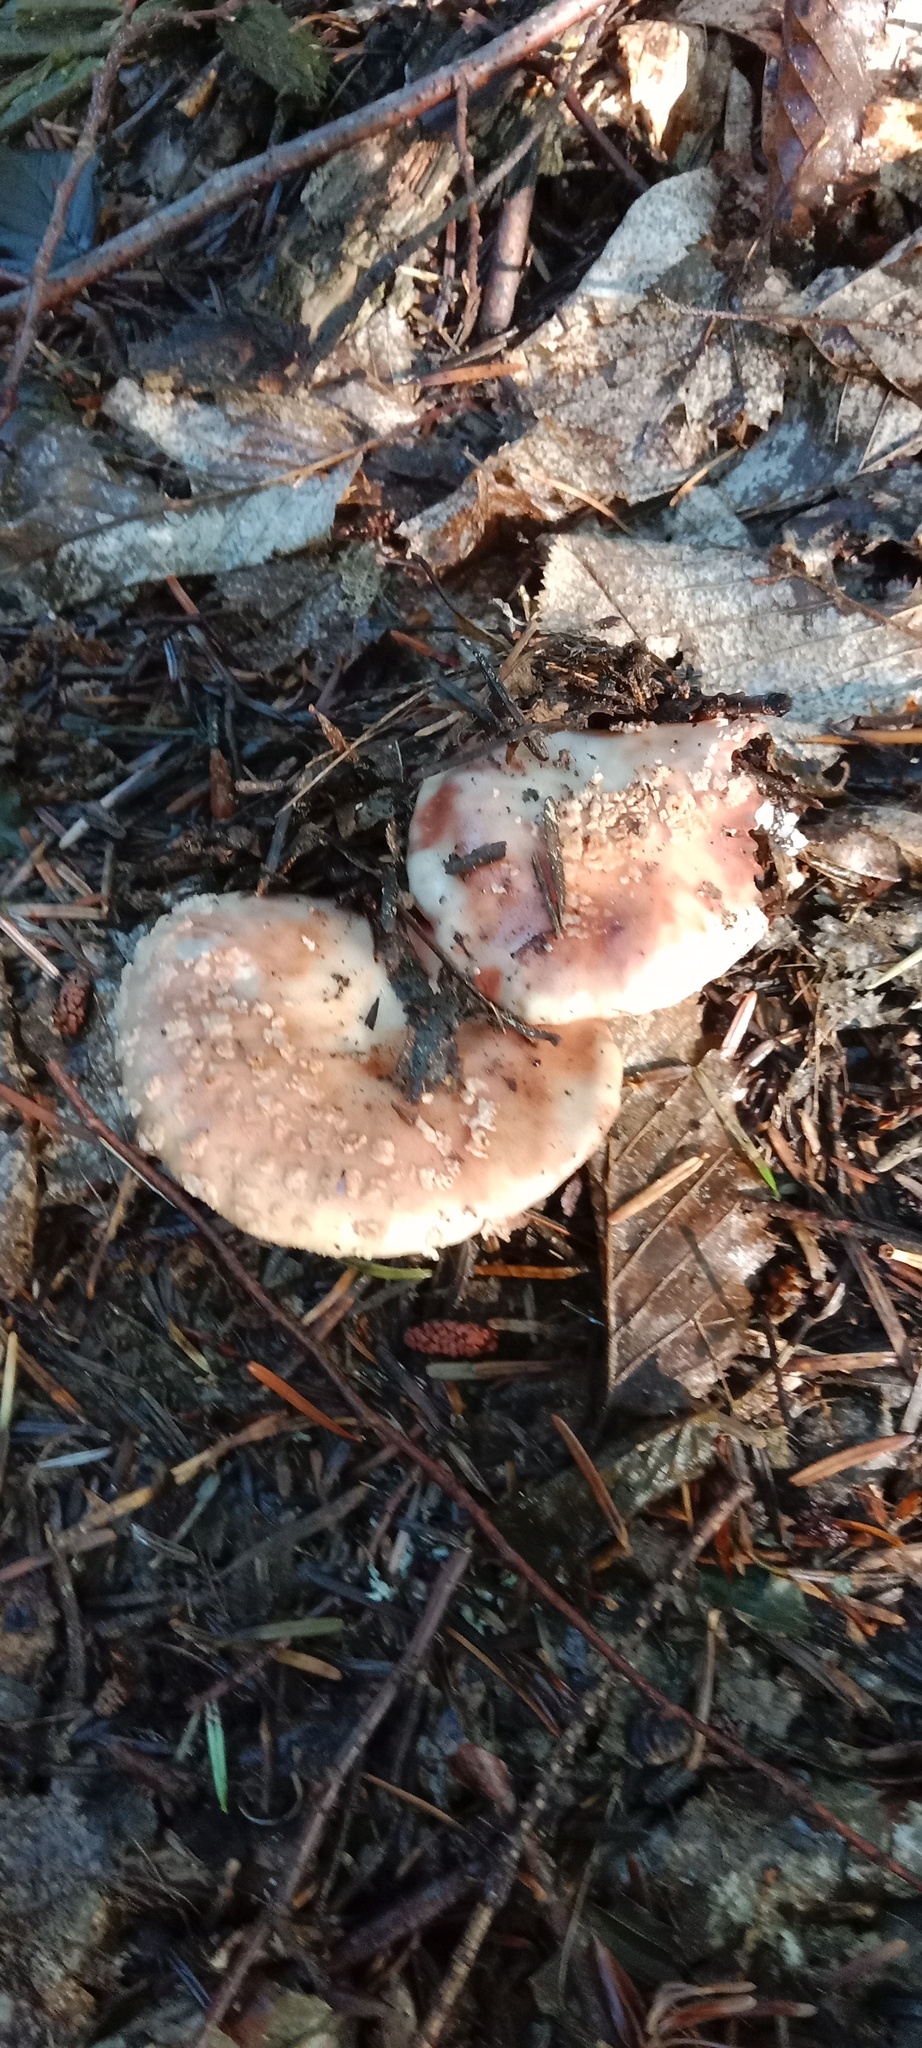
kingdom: Fungi
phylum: Basidiomycota
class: Agaricomycetes
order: Agaricales
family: Amanitaceae
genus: Amanita
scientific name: Amanita rubescens
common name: Blusher
